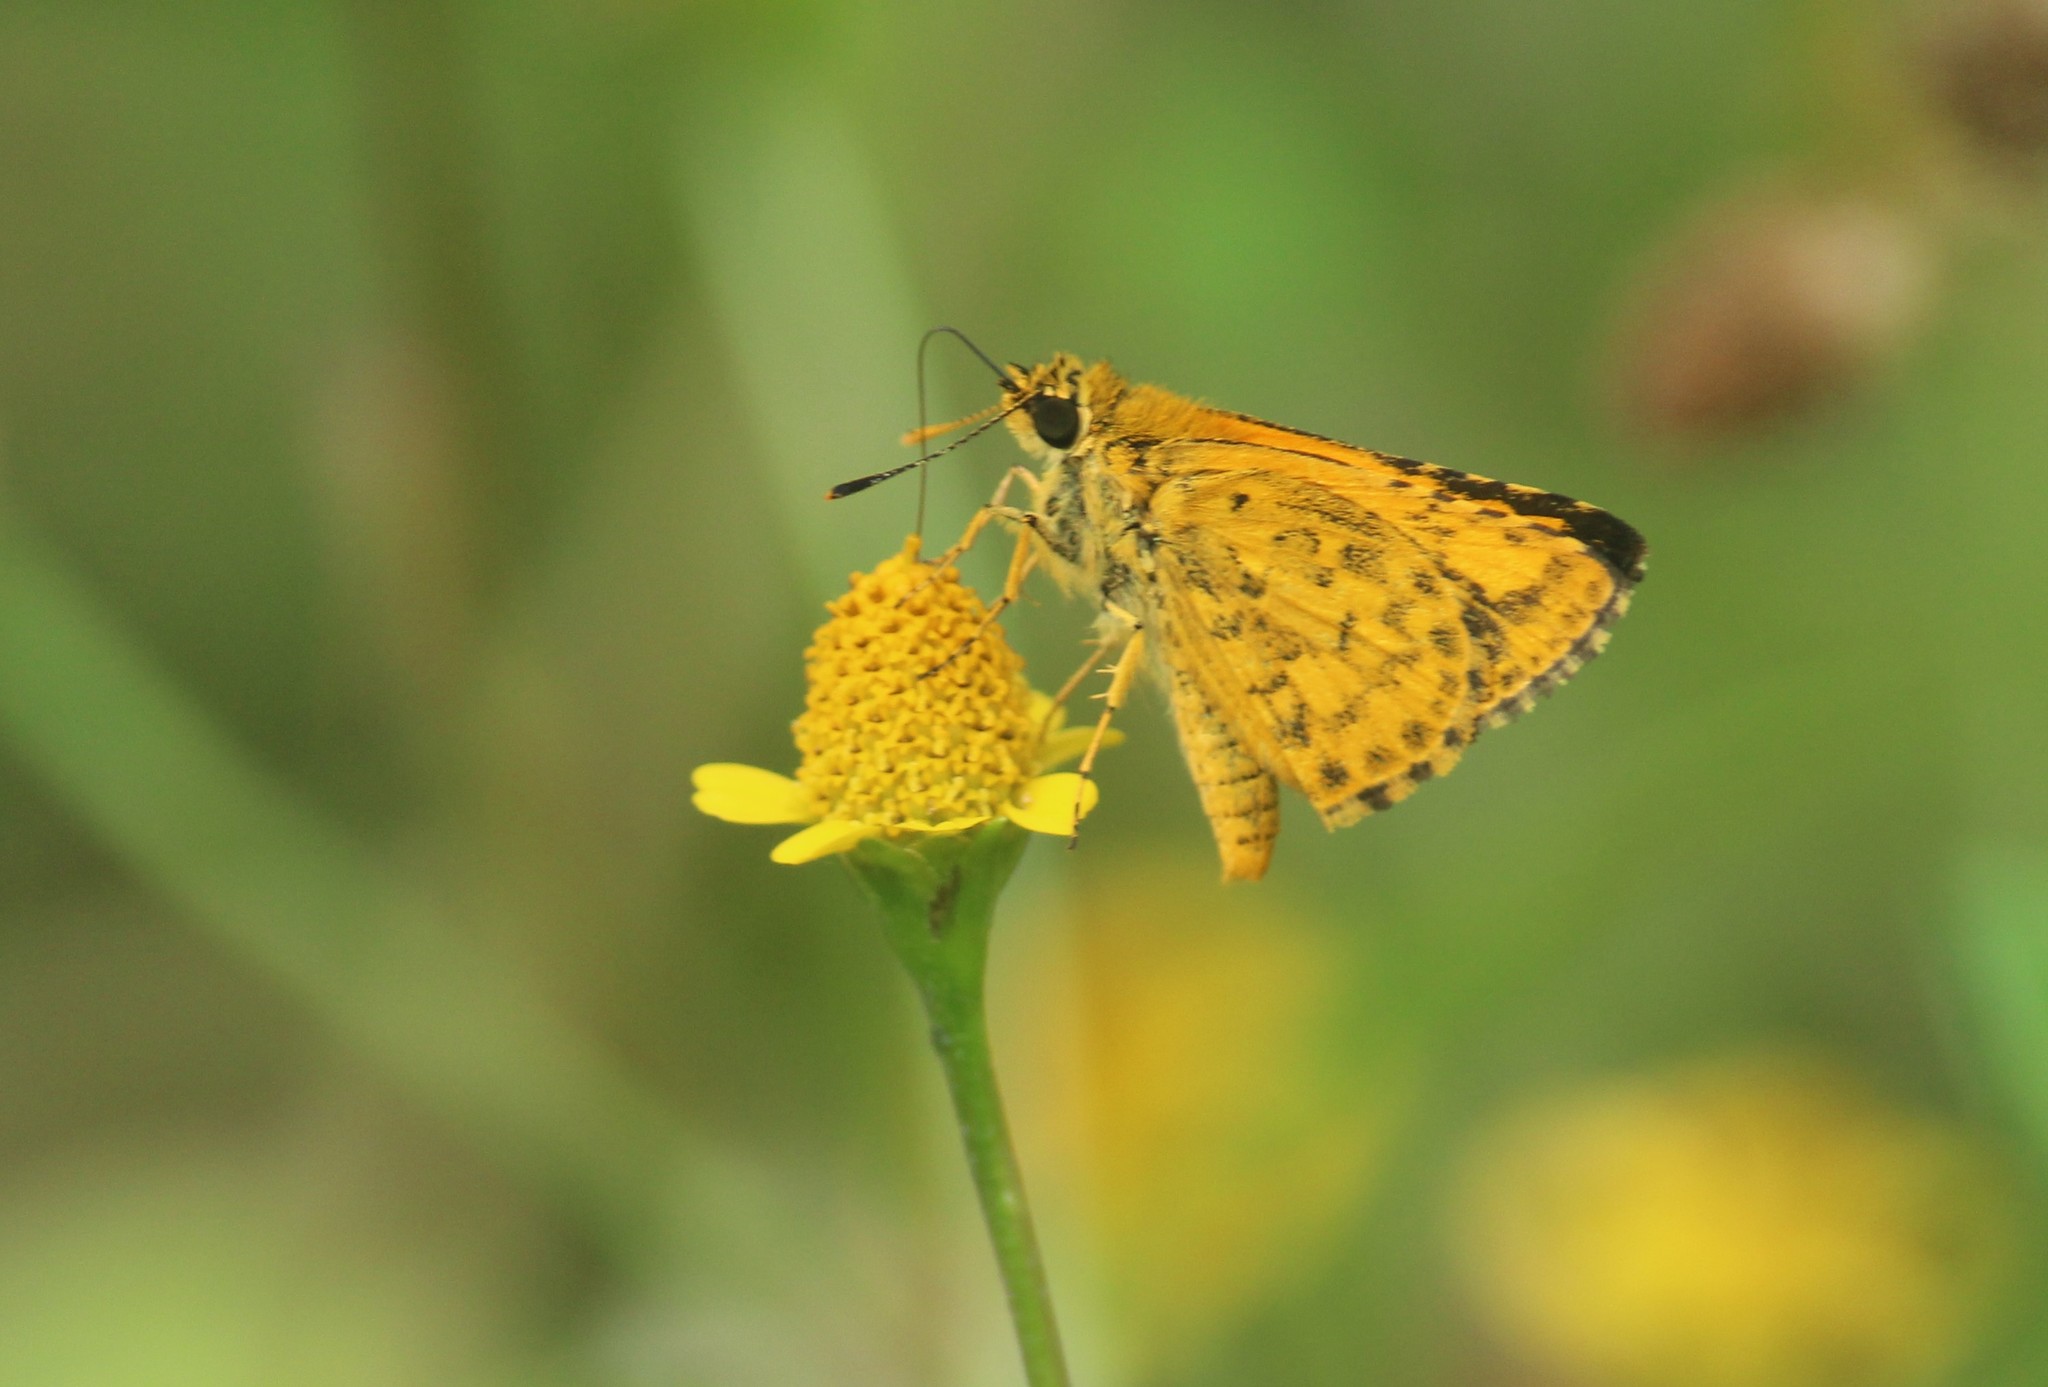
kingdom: Animalia
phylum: Arthropoda
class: Insecta
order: Lepidoptera
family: Hesperiidae
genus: Ampittia
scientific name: Ampittia dioscorides
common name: Common bush hopper
